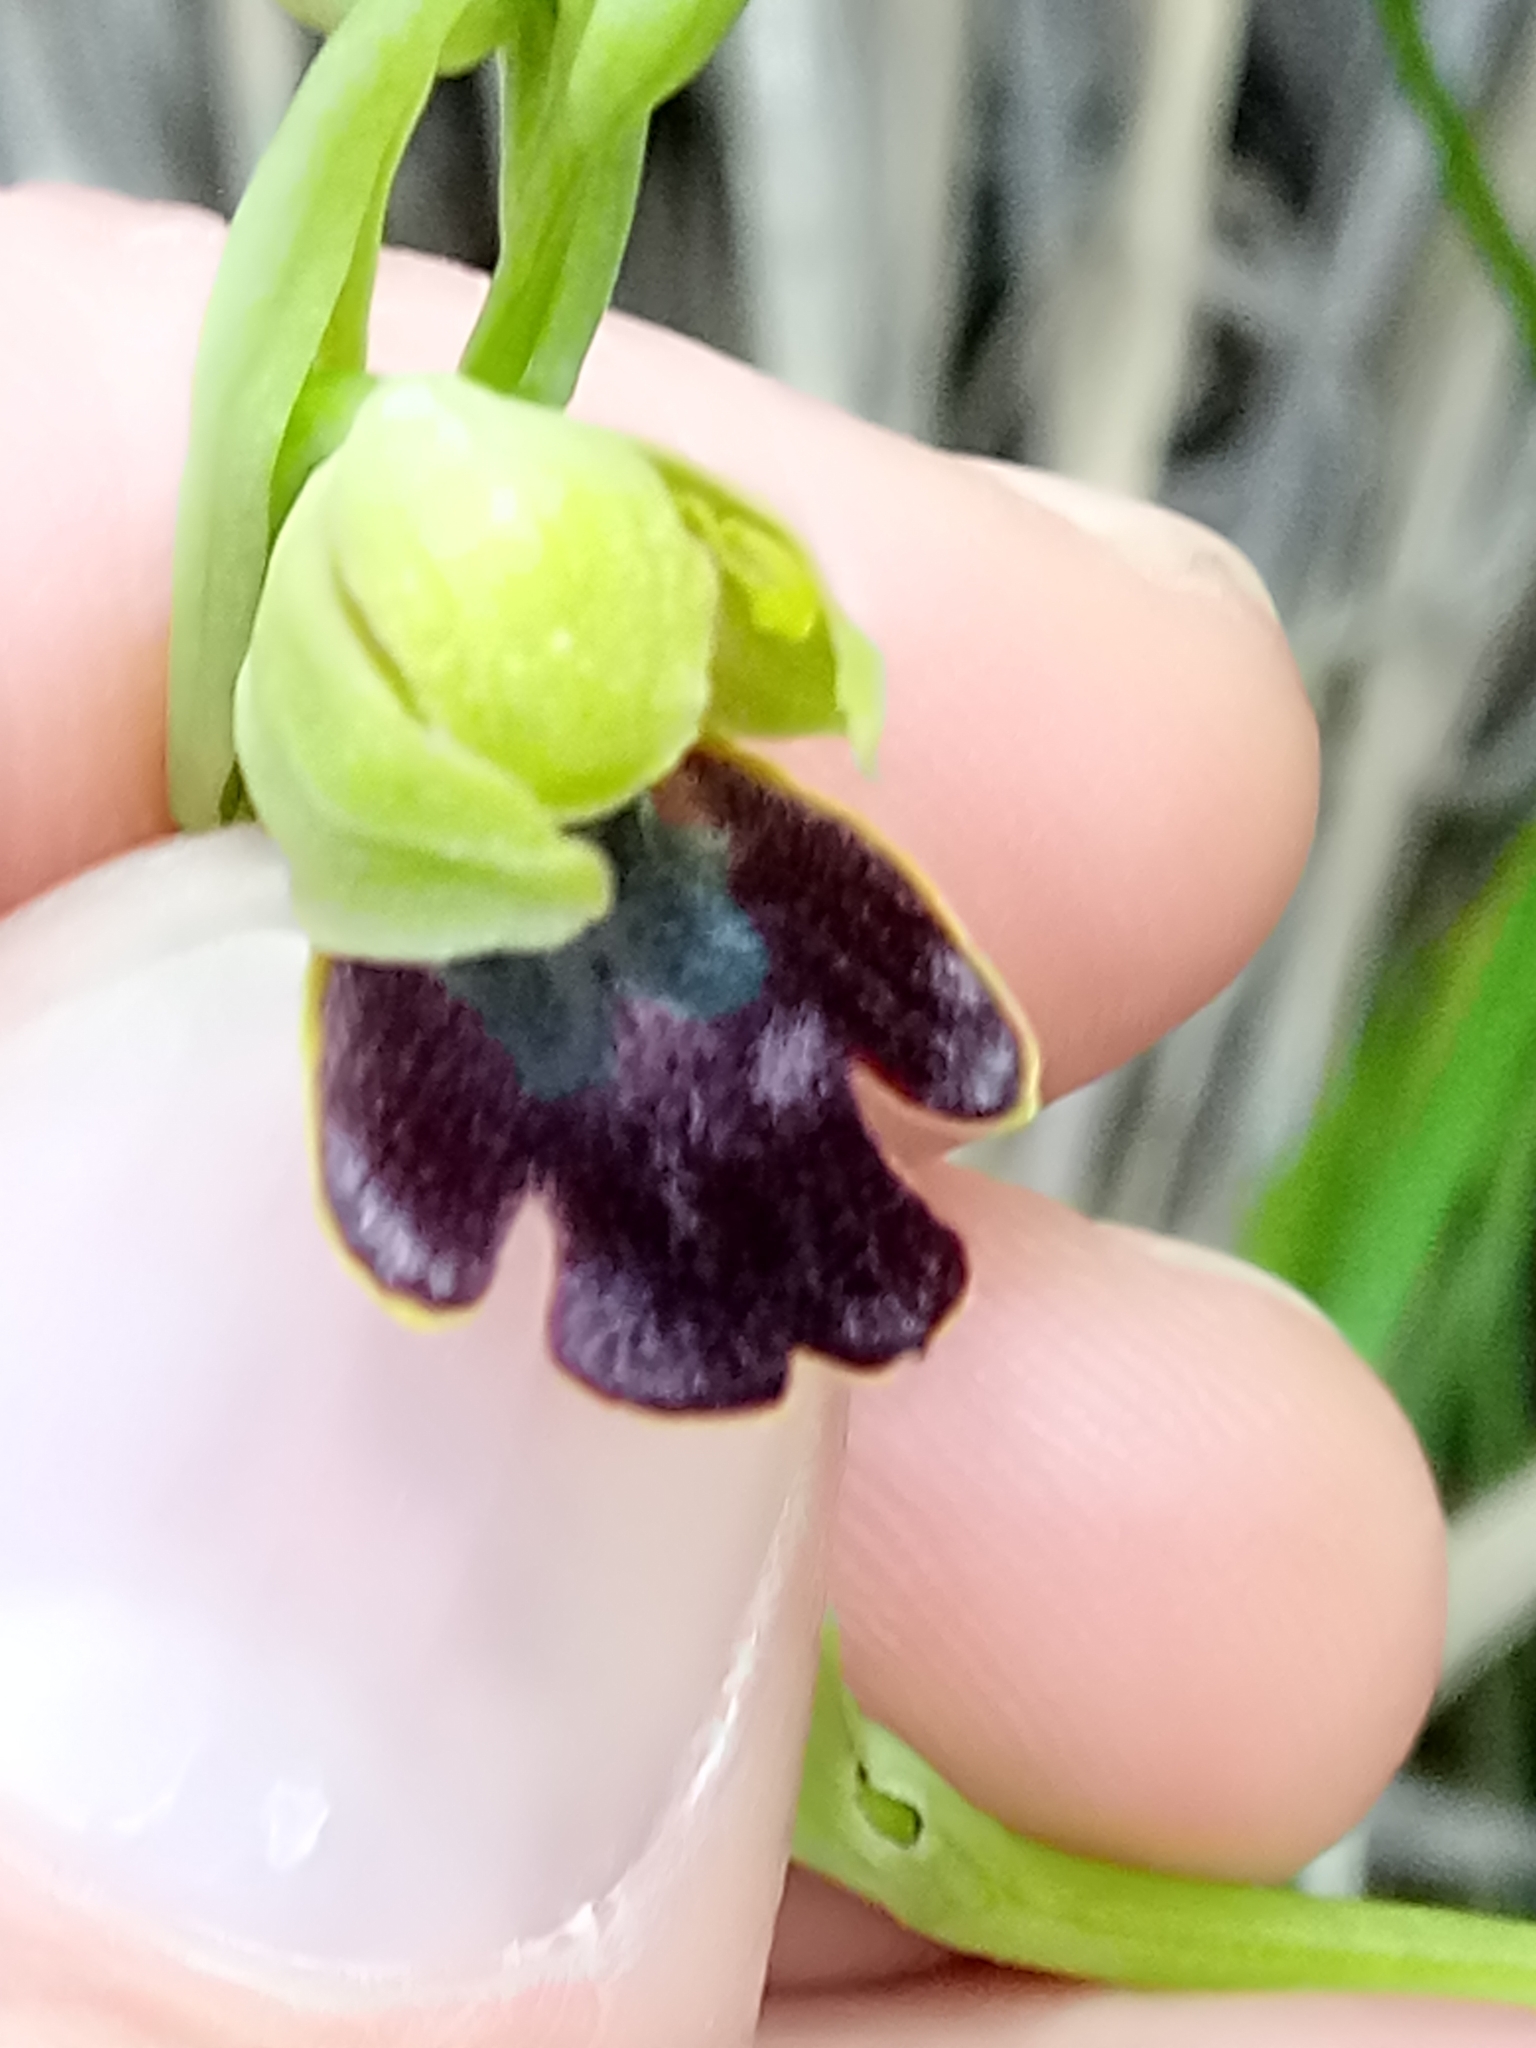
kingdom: Plantae
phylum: Tracheophyta
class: Liliopsida
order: Asparagales
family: Orchidaceae
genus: Ophrys
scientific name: Ophrys fusca
